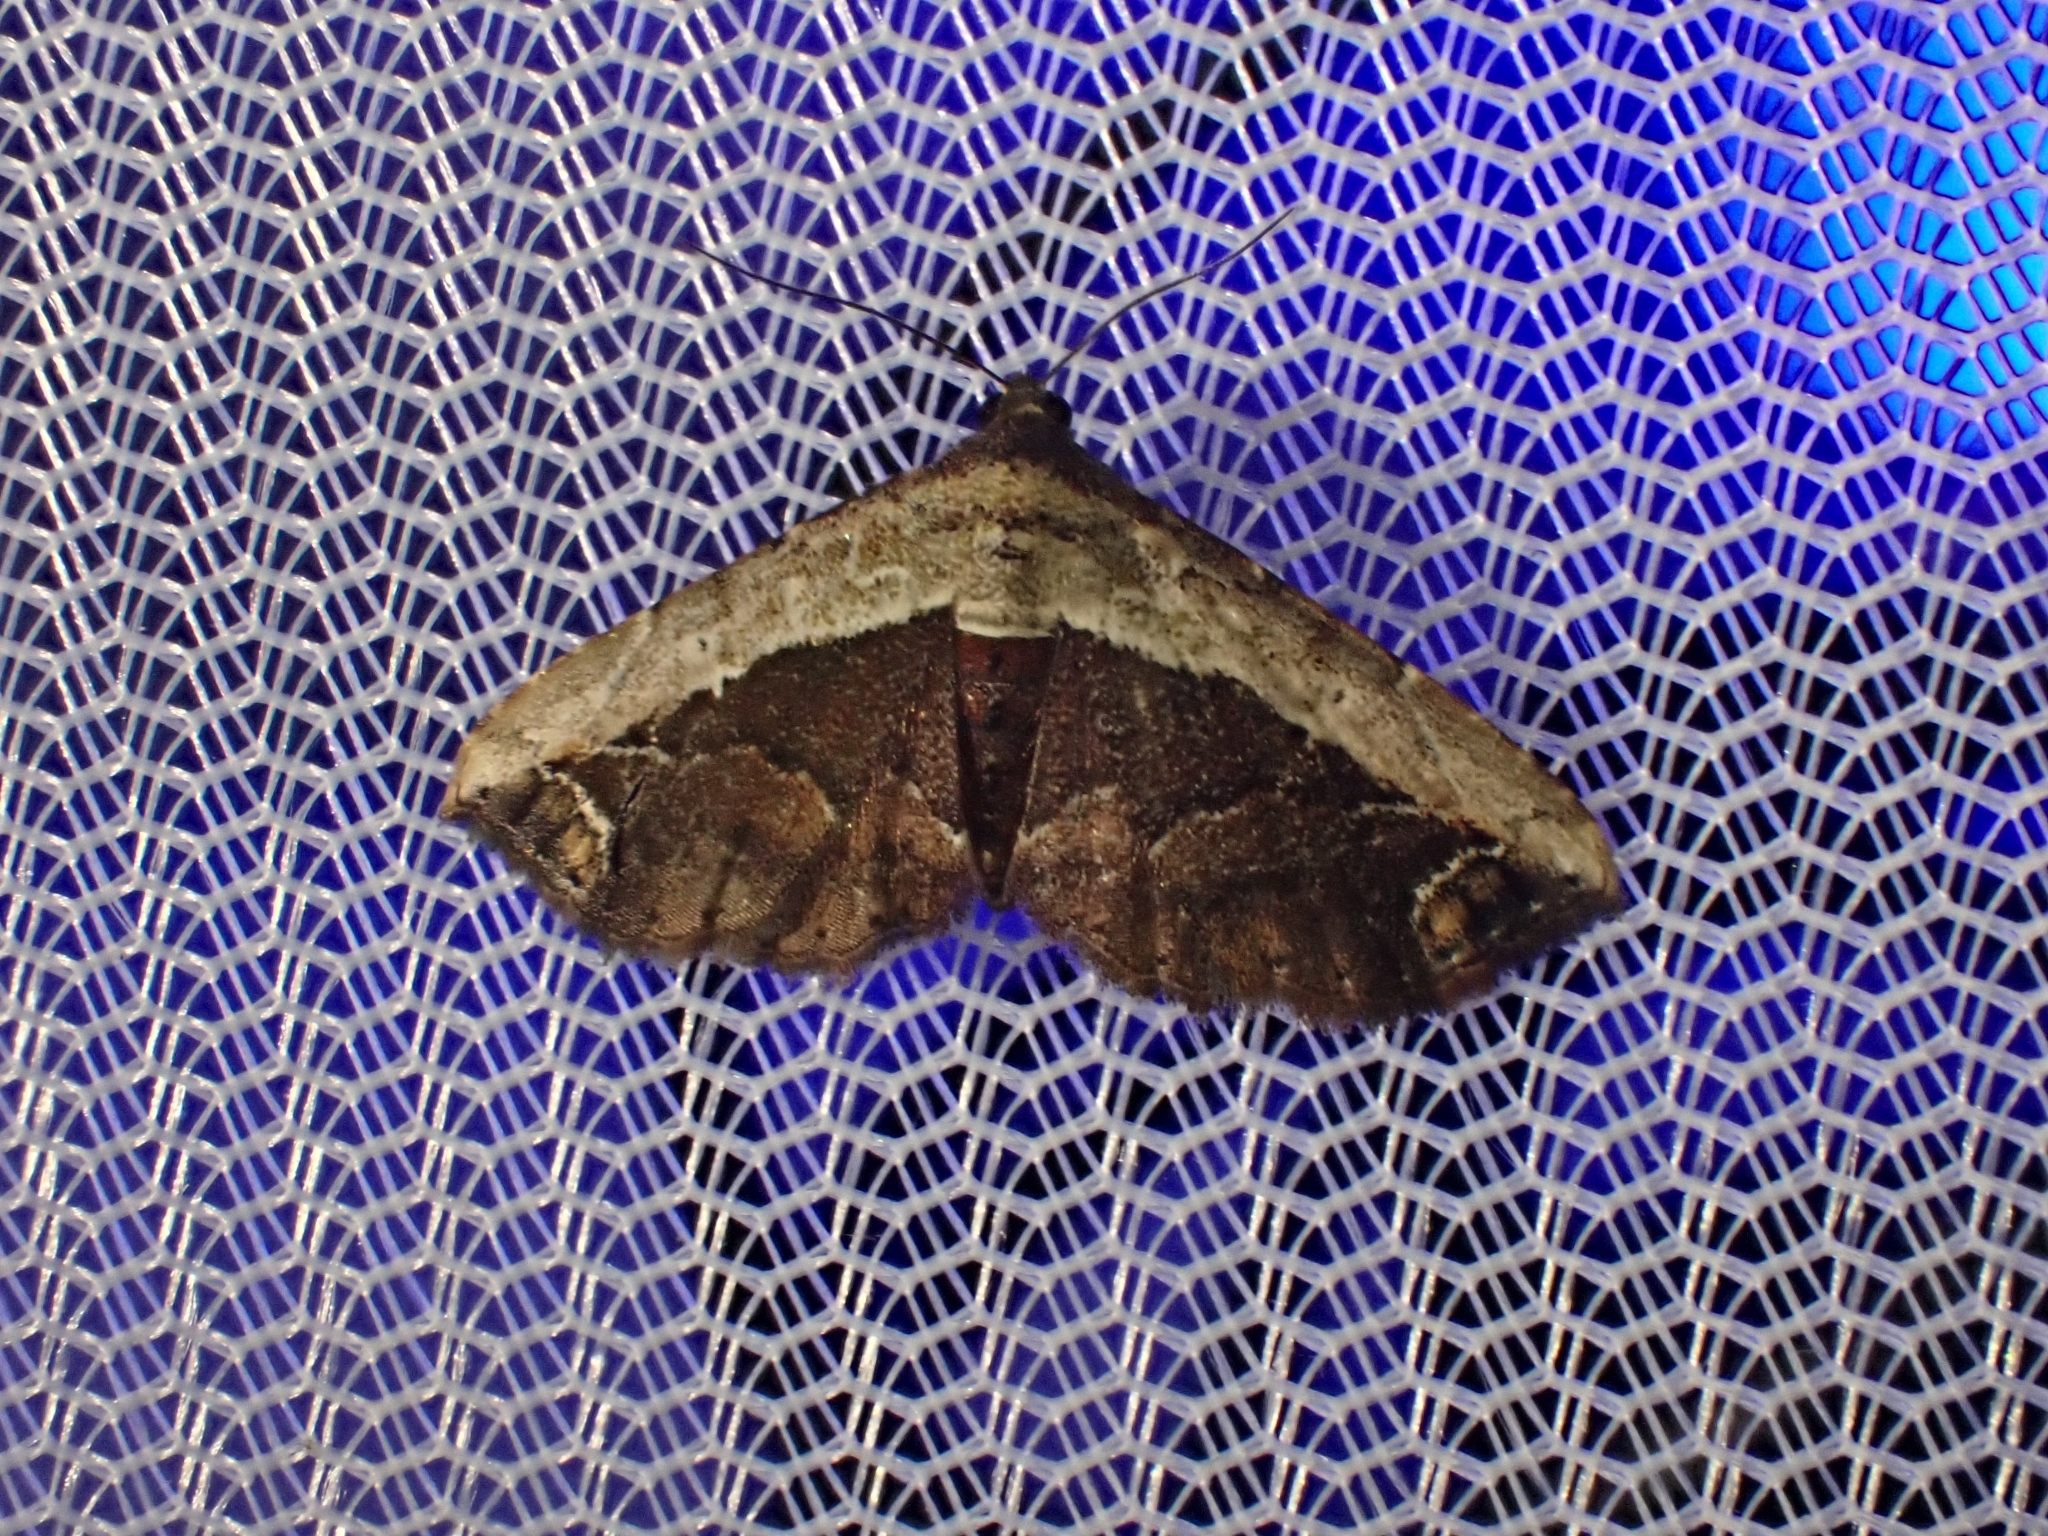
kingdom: Animalia
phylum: Arthropoda
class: Insecta
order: Lepidoptera
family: Erebidae
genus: Grammodes
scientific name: Grammodes latifera
